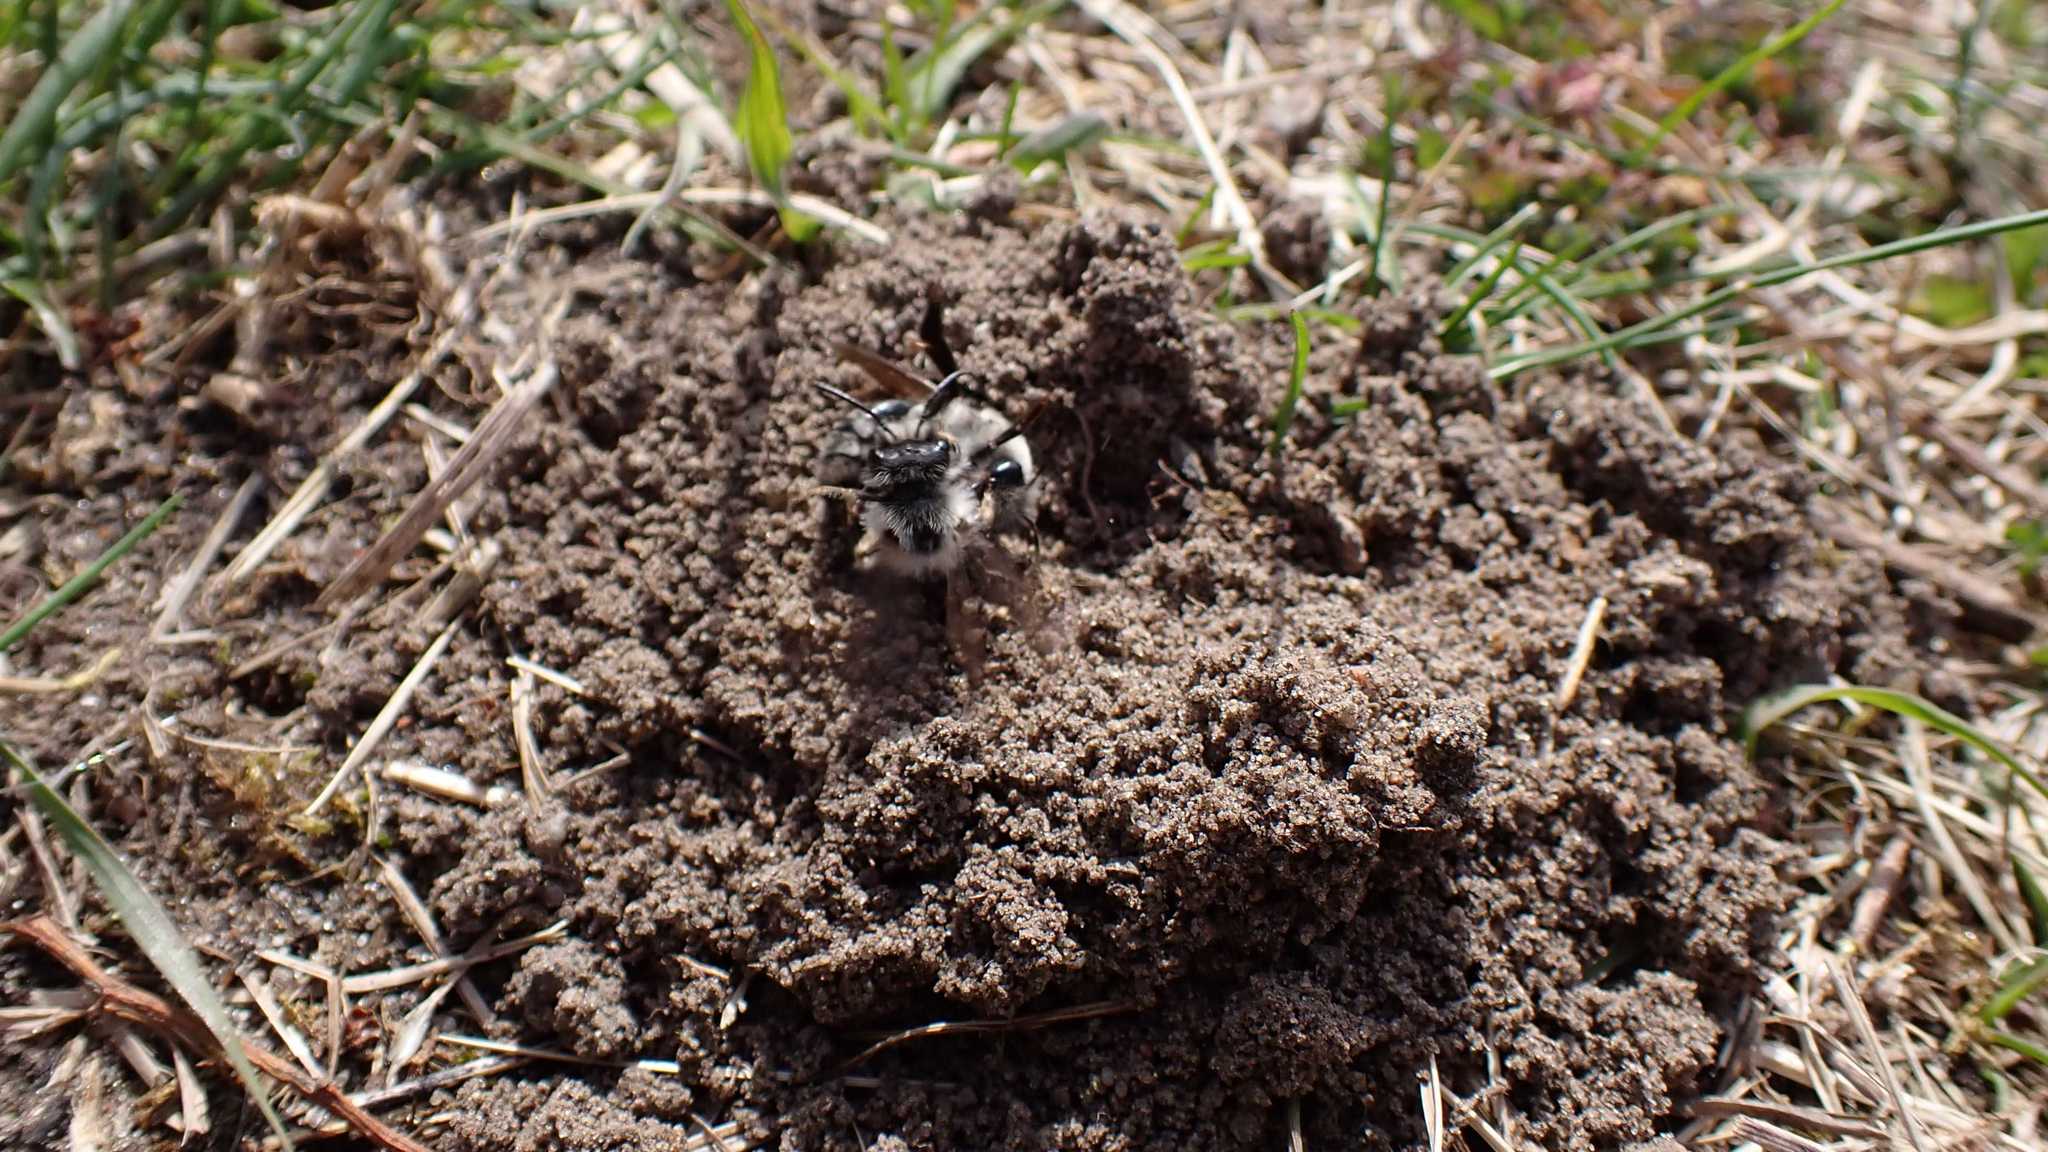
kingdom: Animalia
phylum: Arthropoda
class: Insecta
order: Hymenoptera
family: Andrenidae
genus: Andrena
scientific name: Andrena vaga
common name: Grey-backed mining bee
